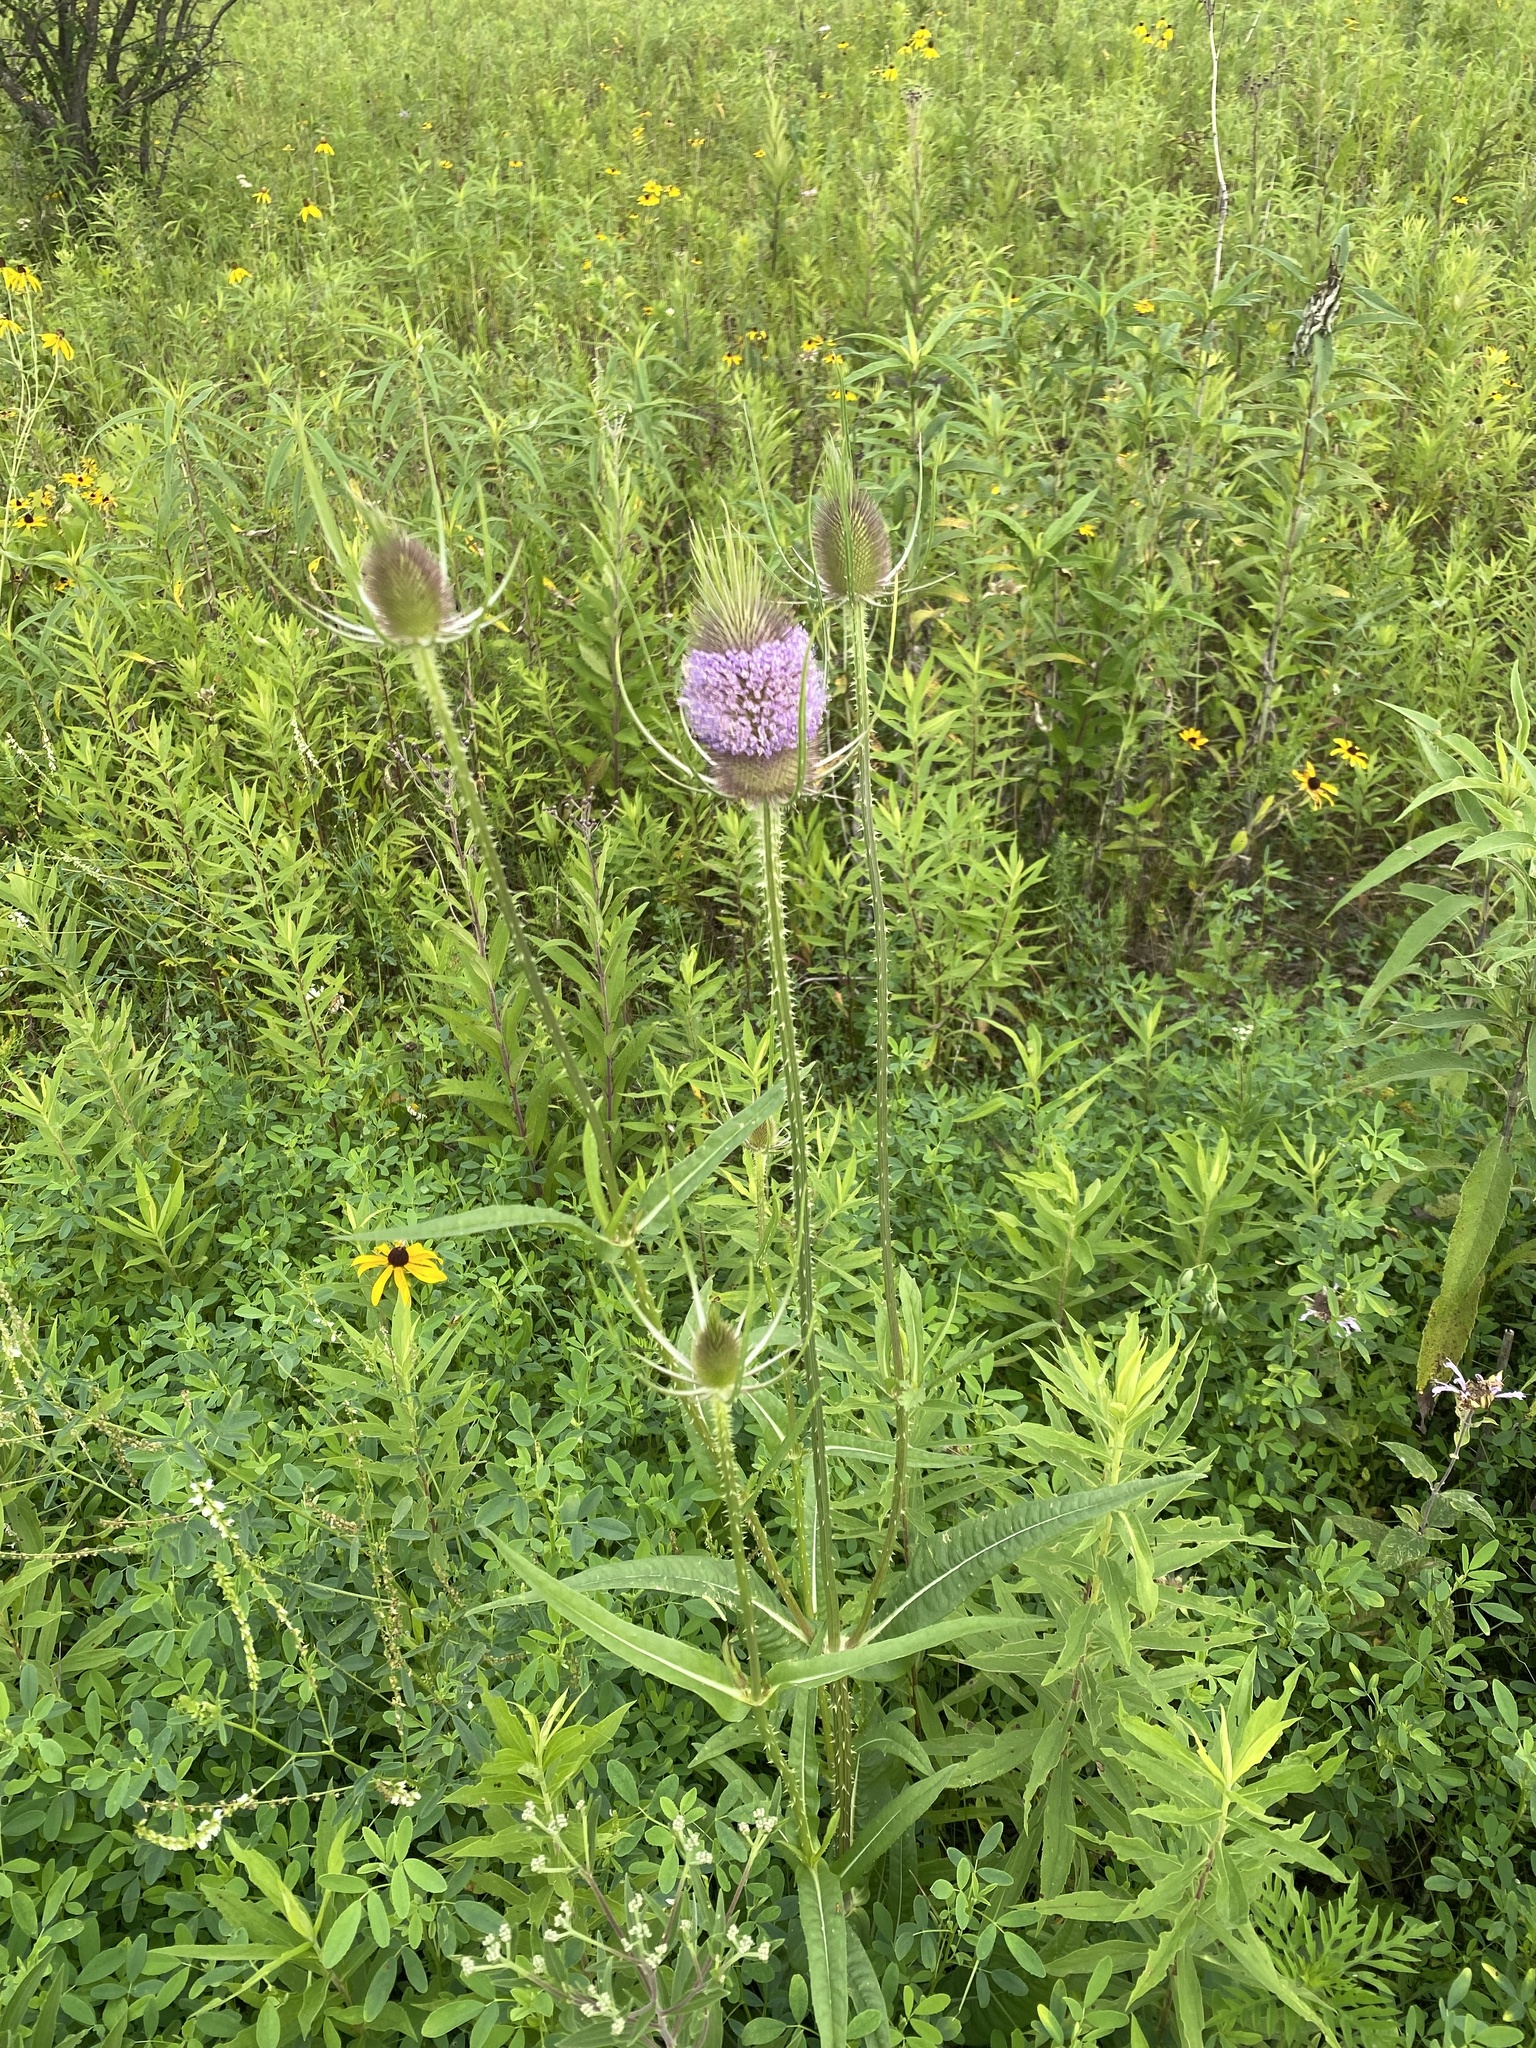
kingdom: Plantae
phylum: Tracheophyta
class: Magnoliopsida
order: Dipsacales
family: Caprifoliaceae
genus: Dipsacus
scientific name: Dipsacus fullonum
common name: Teasel
